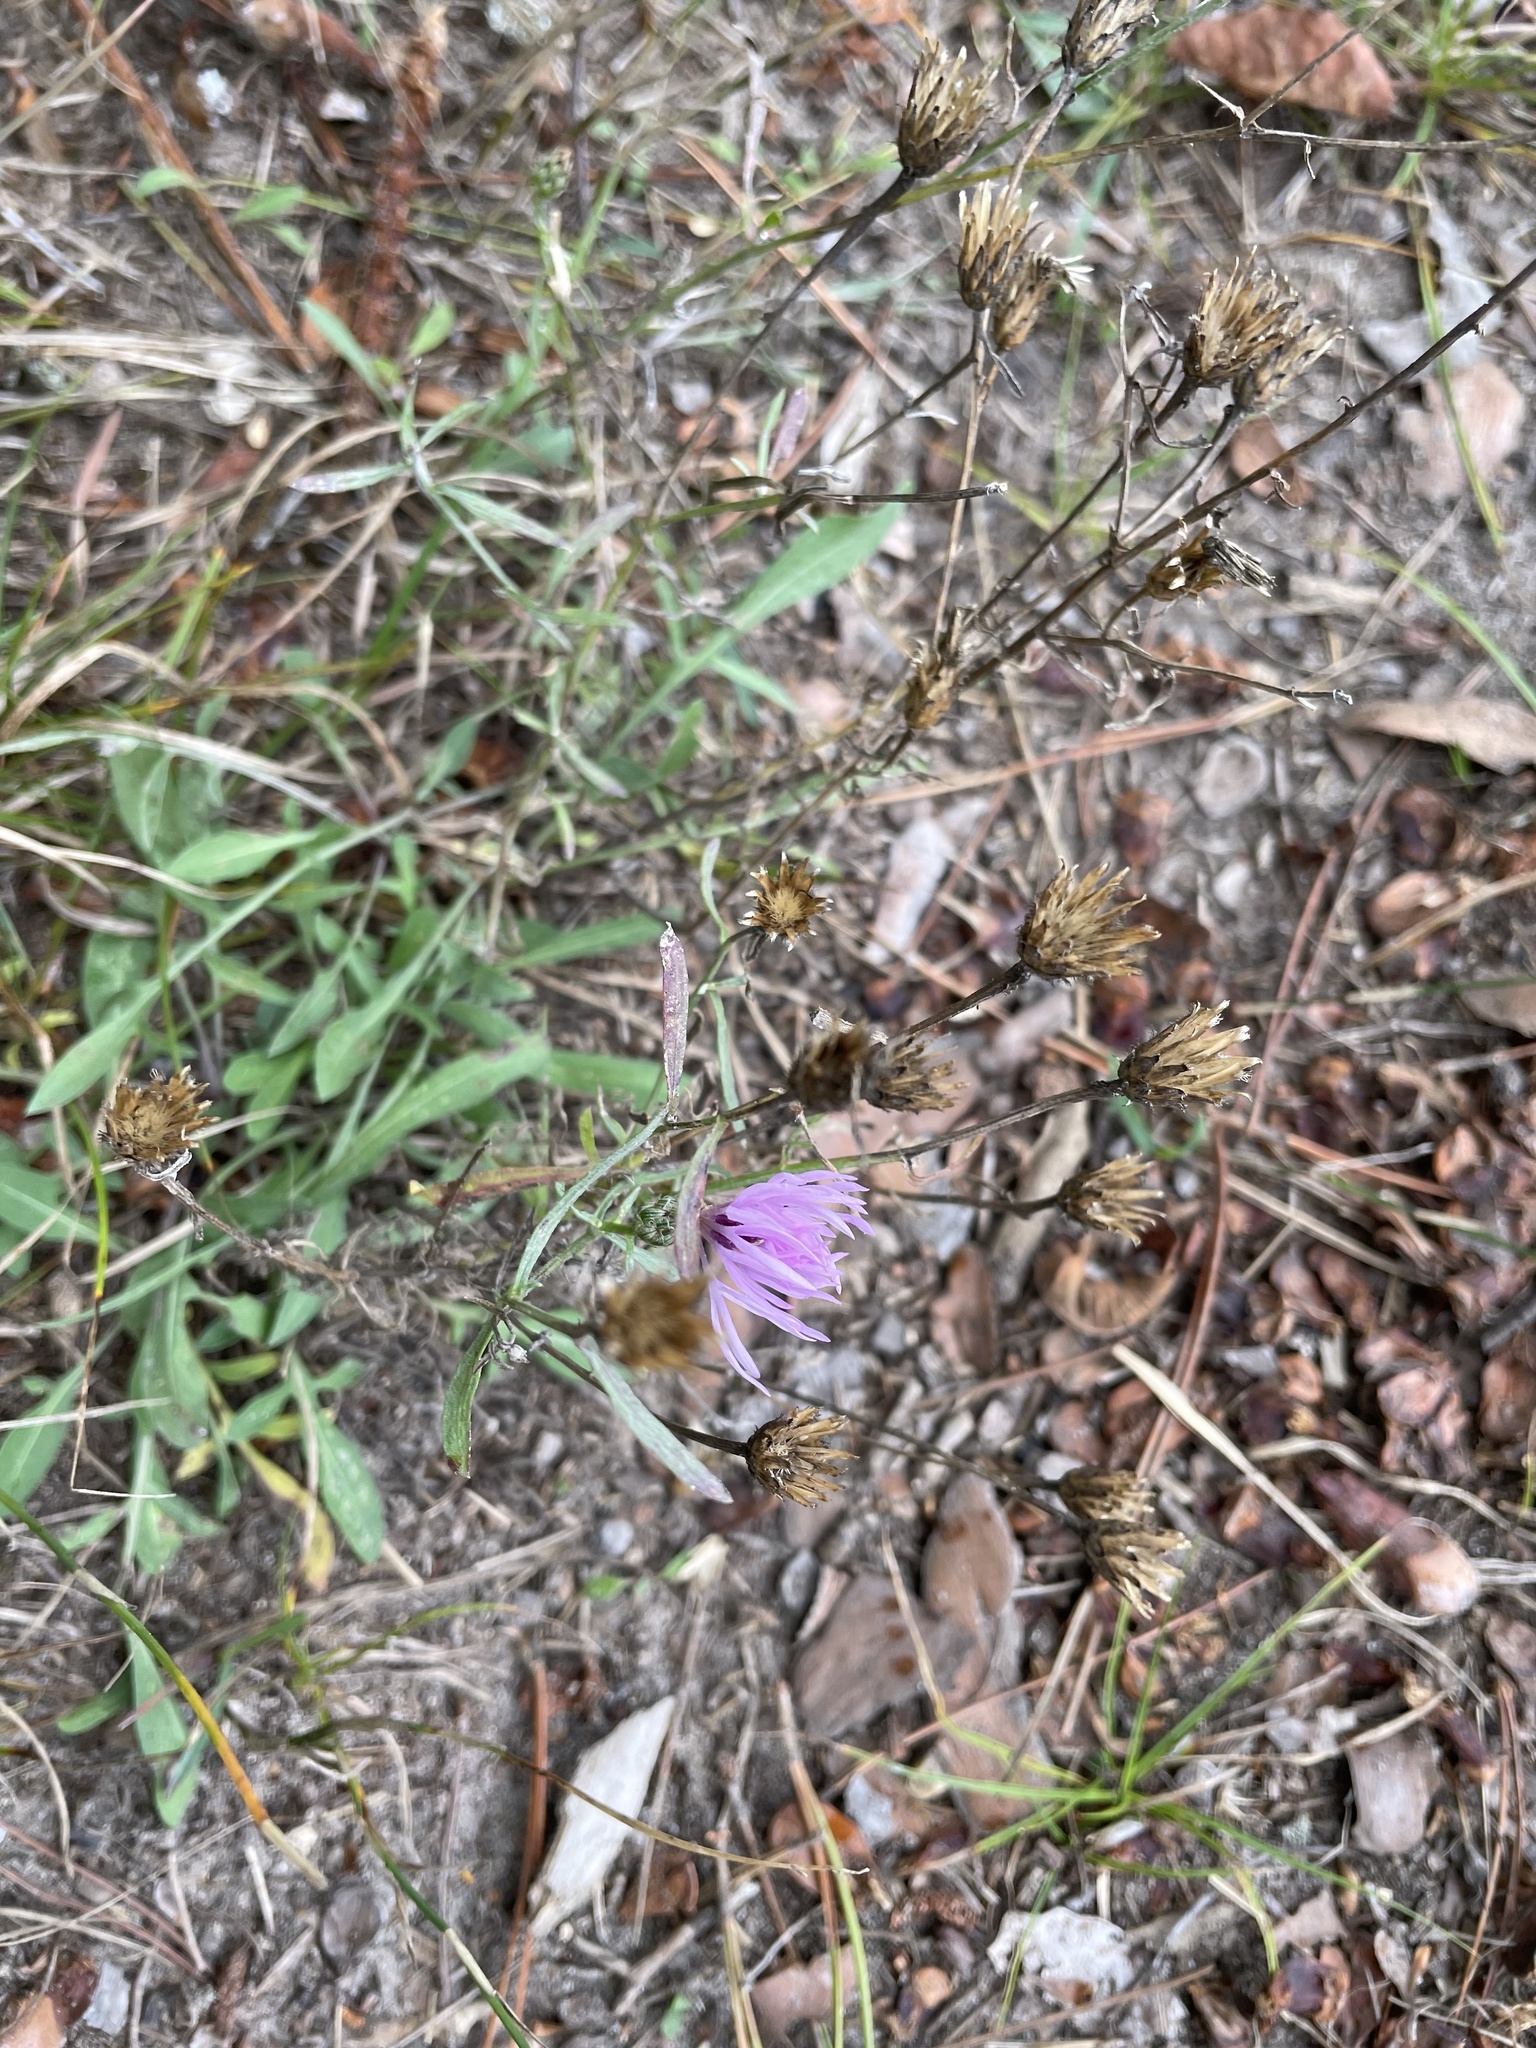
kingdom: Plantae
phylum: Tracheophyta
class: Magnoliopsida
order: Asterales
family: Asteraceae
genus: Centaurea
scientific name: Centaurea stoebe
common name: Spotted knapweed
